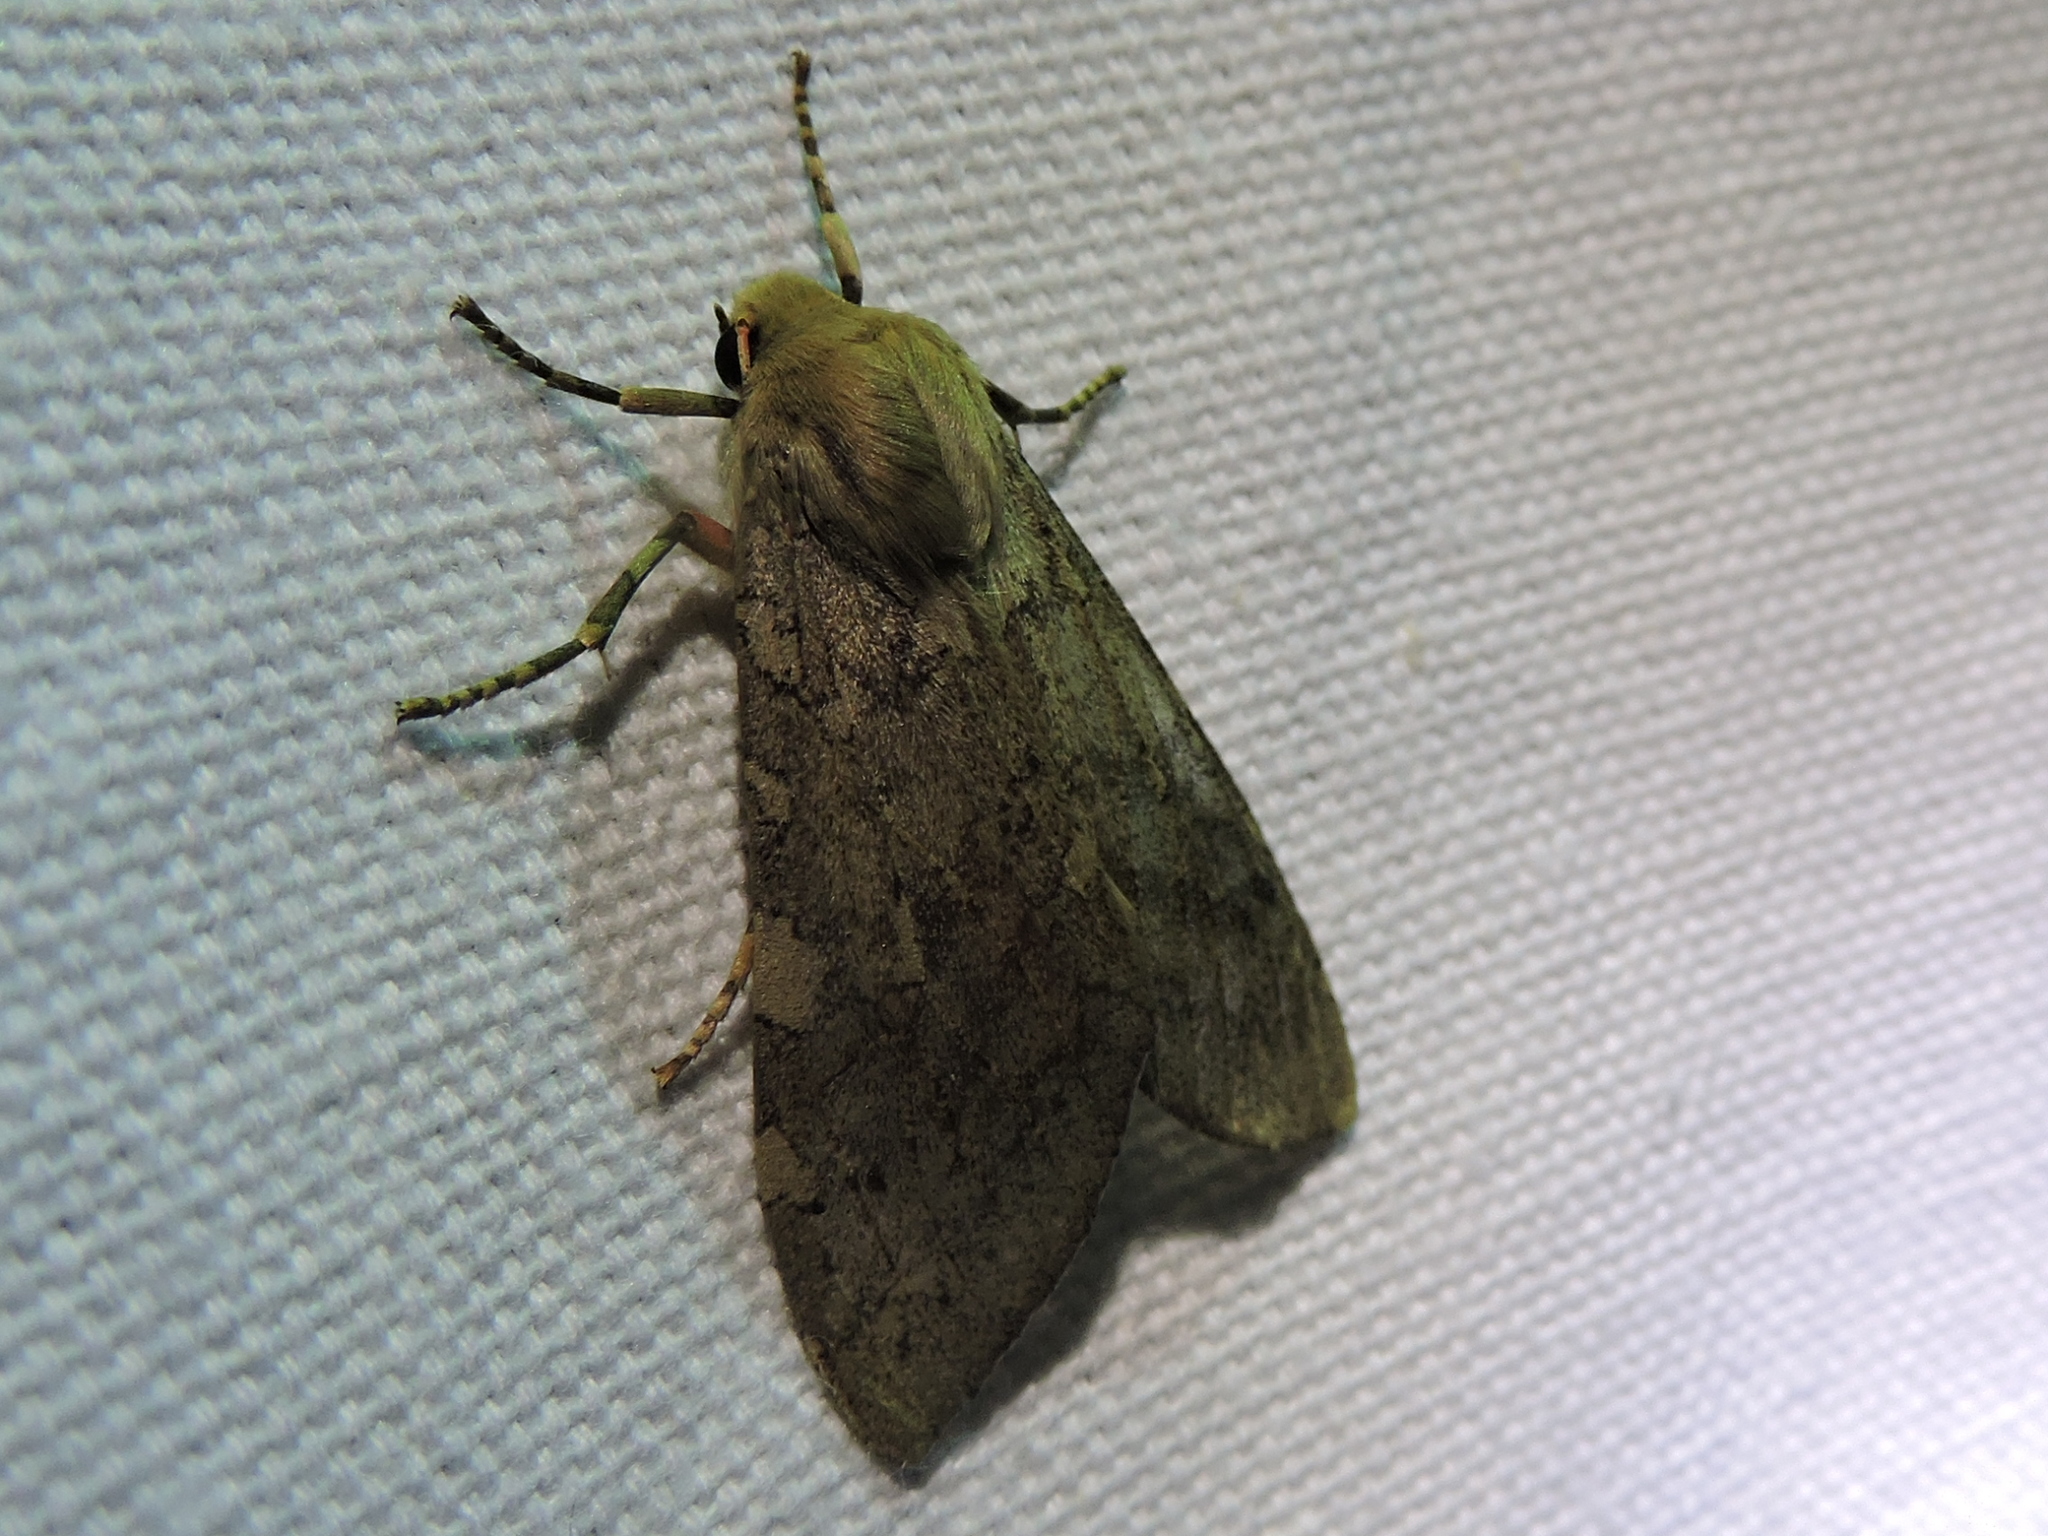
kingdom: Animalia
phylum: Arthropoda
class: Insecta
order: Lepidoptera
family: Erebidae
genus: Hemihyalea
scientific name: Hemihyalea labecula
